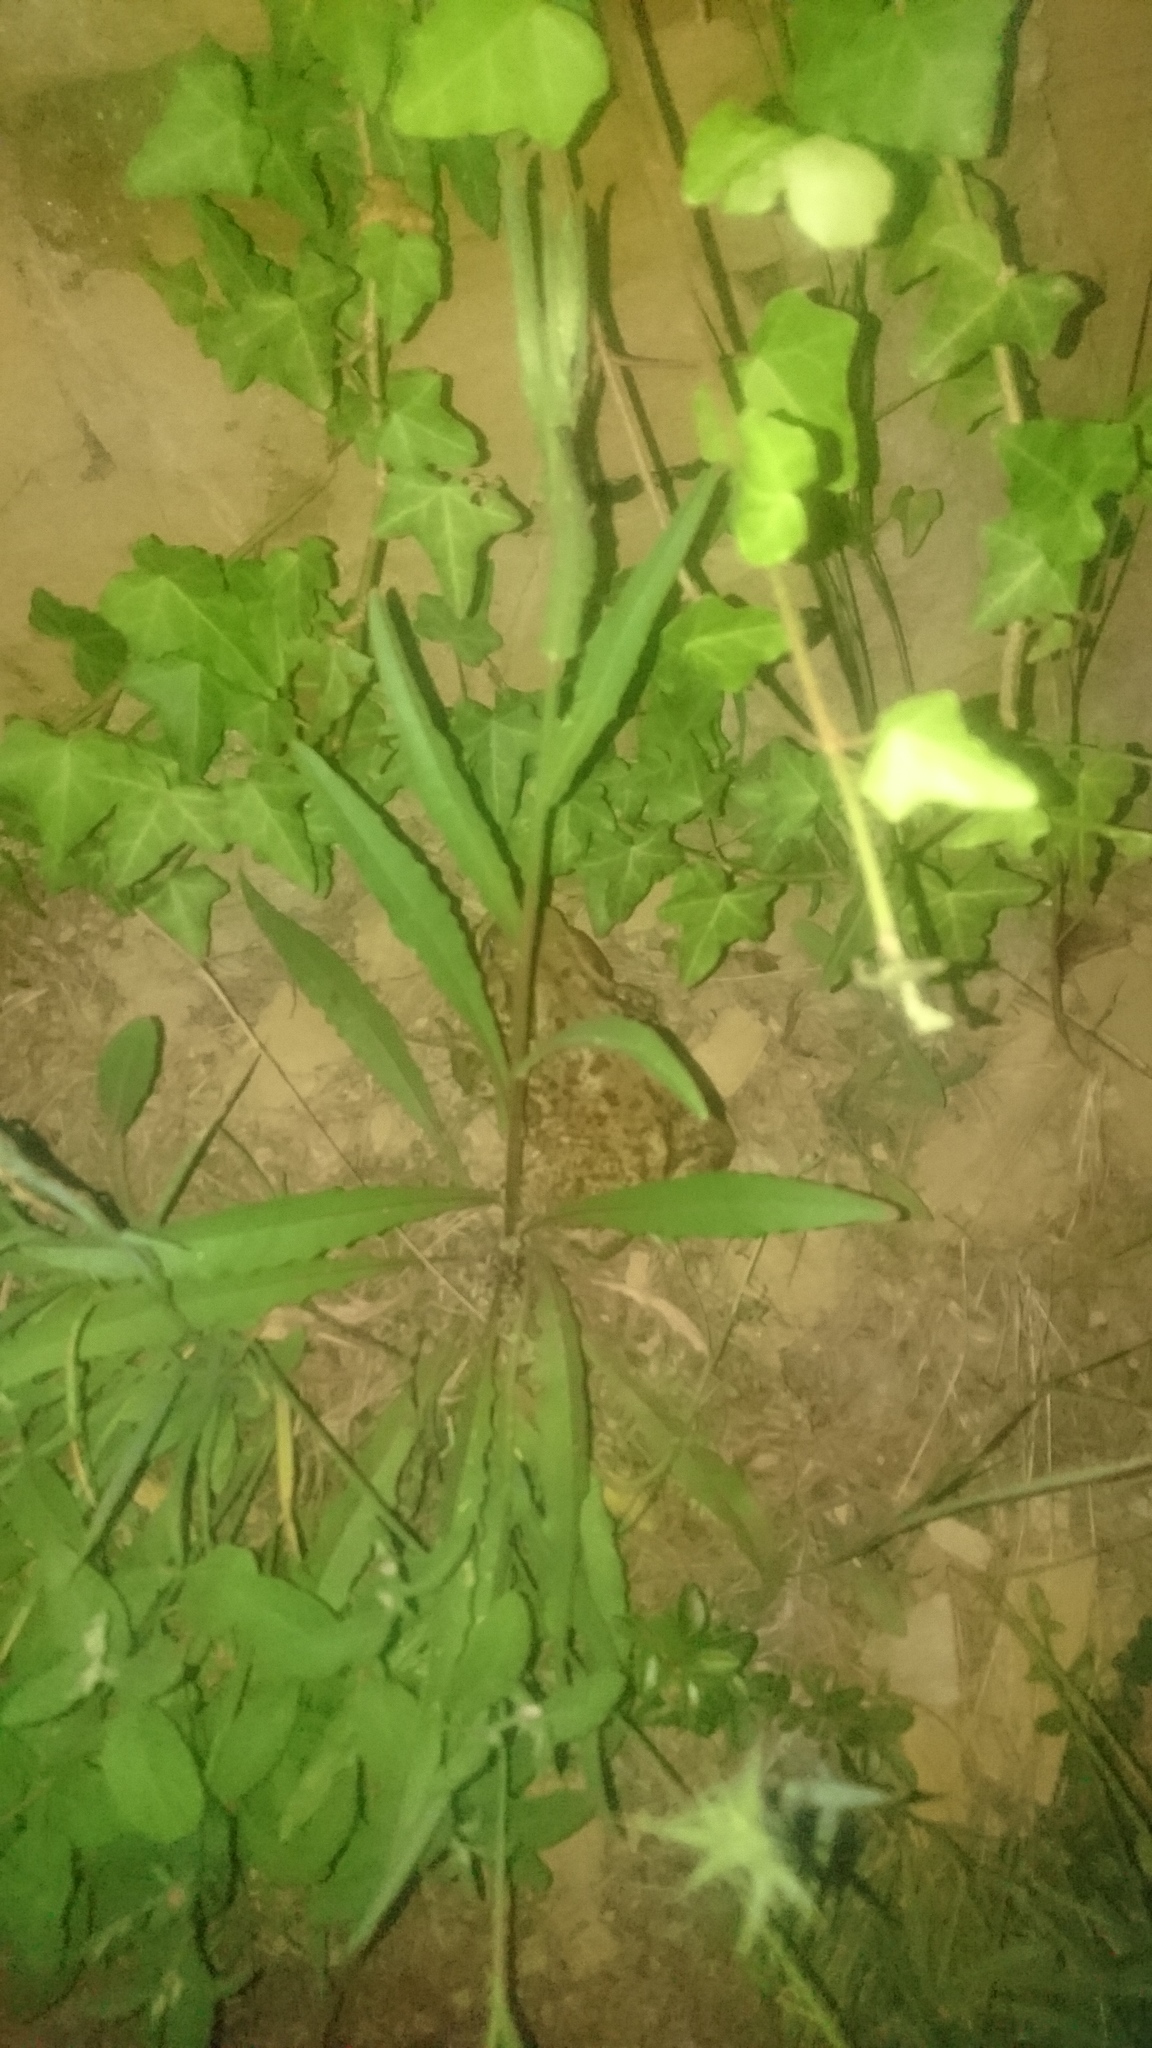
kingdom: Animalia
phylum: Chordata
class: Amphibia
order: Anura
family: Bufonidae
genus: Bufo
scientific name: Bufo bufo
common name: Common toad
